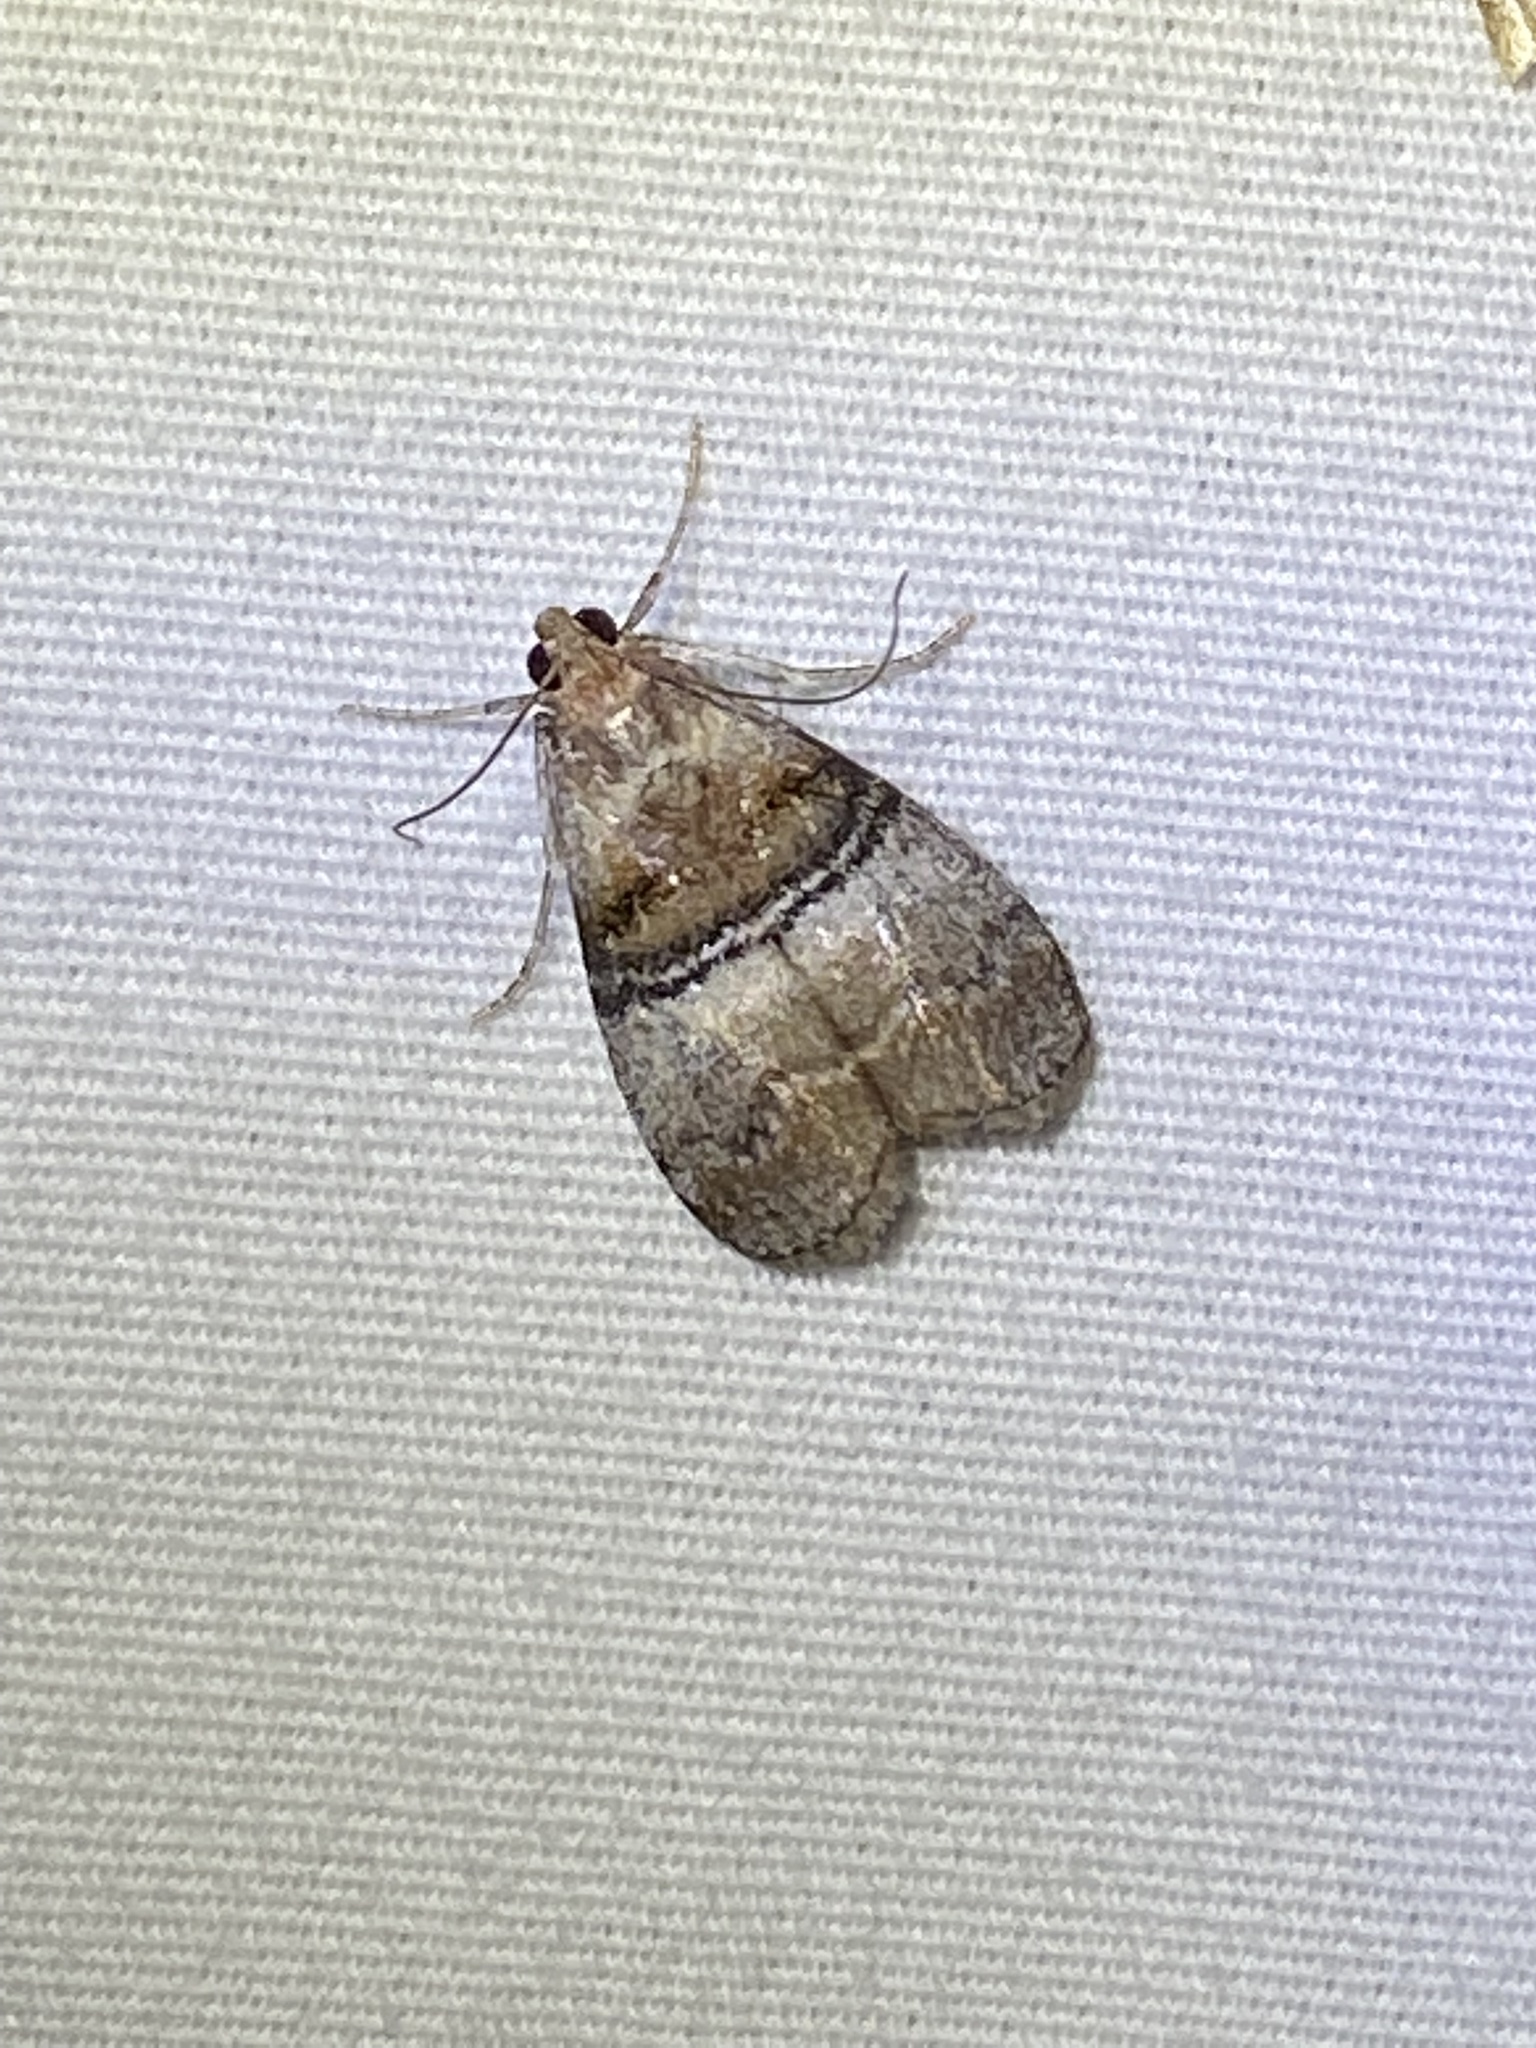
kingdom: Animalia
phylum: Arthropoda
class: Insecta
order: Lepidoptera
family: Pyralidae
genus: Pococera
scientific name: Pococera militella
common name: Sycamore webworm moth
